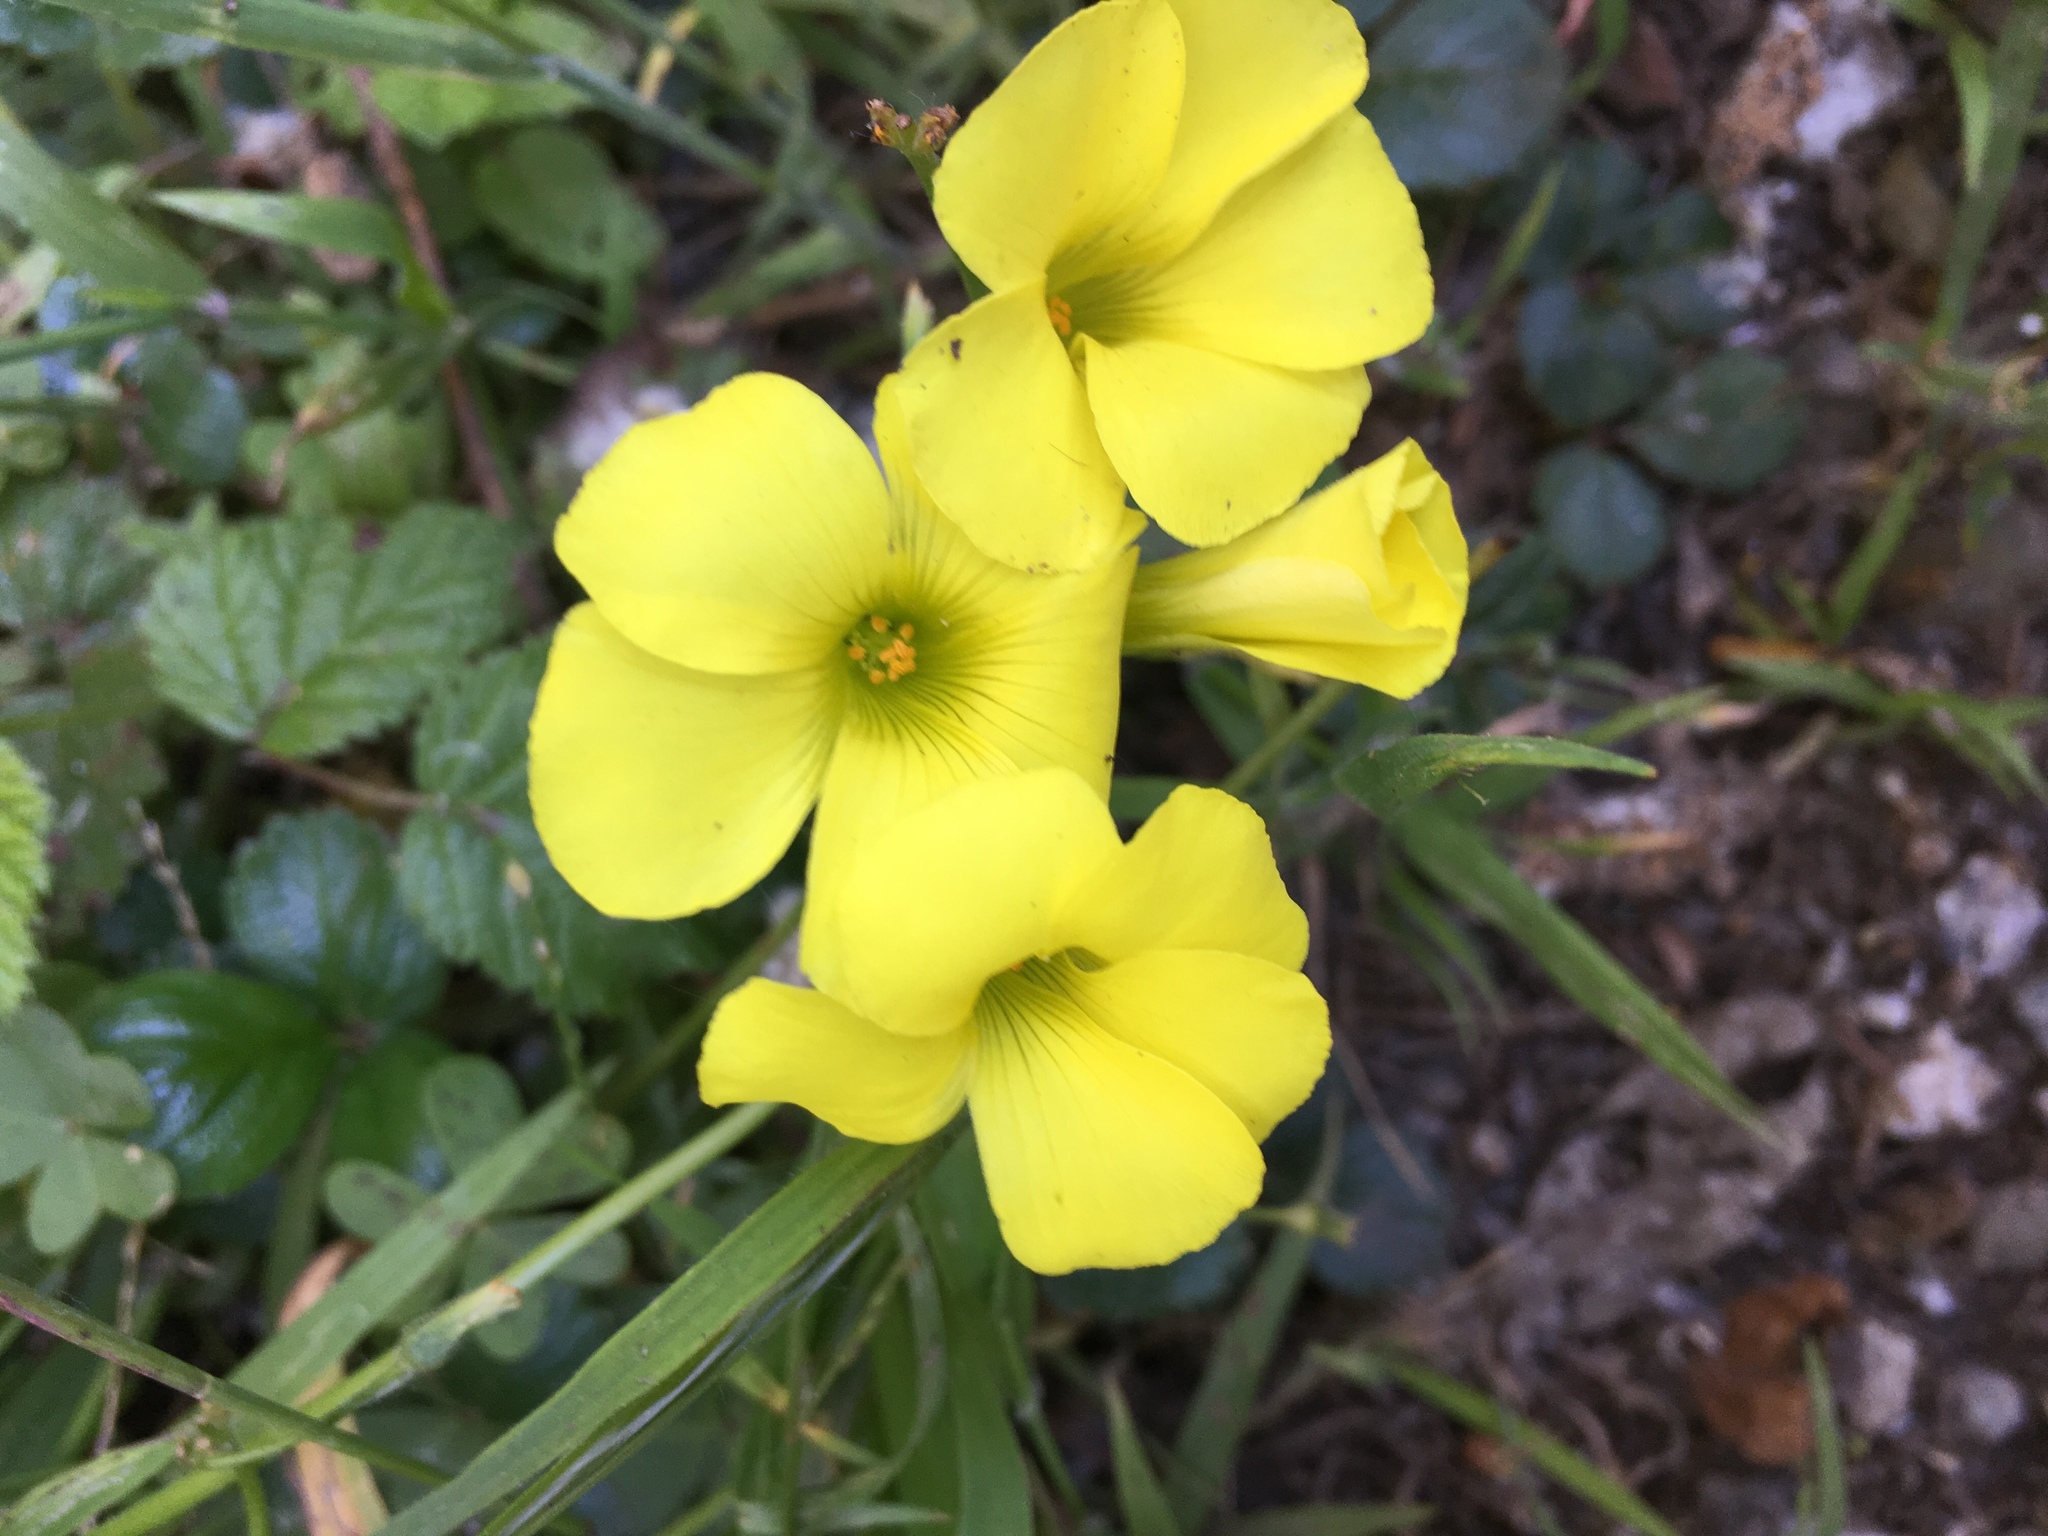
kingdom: Plantae
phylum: Tracheophyta
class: Magnoliopsida
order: Oxalidales
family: Oxalidaceae
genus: Oxalis
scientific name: Oxalis pes-caprae
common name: Bermuda-buttercup
